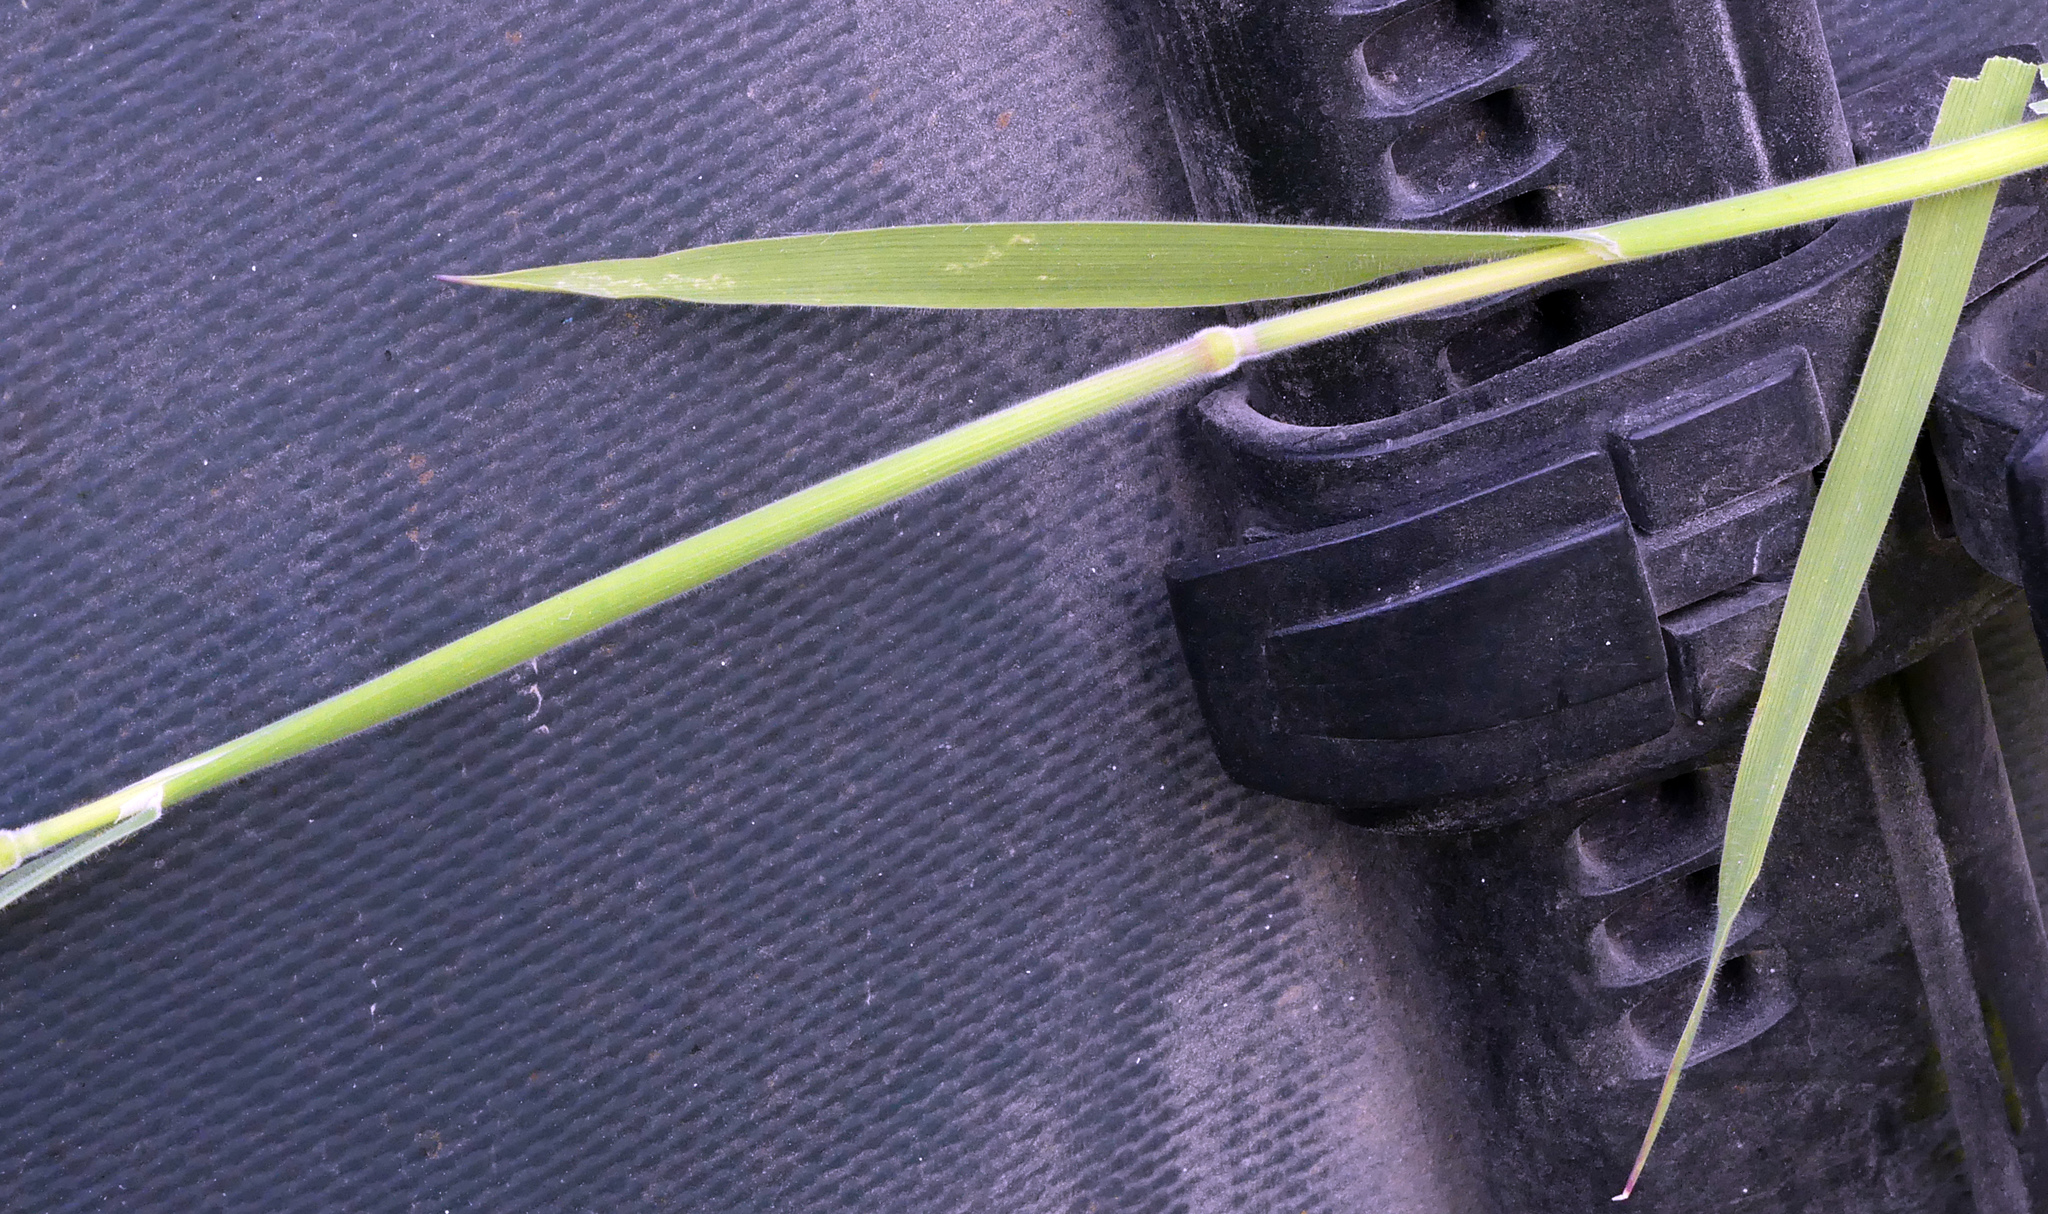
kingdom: Plantae
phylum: Tracheophyta
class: Liliopsida
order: Poales
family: Poaceae
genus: Holcus
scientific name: Holcus lanatus
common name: Yorkshire-fog
